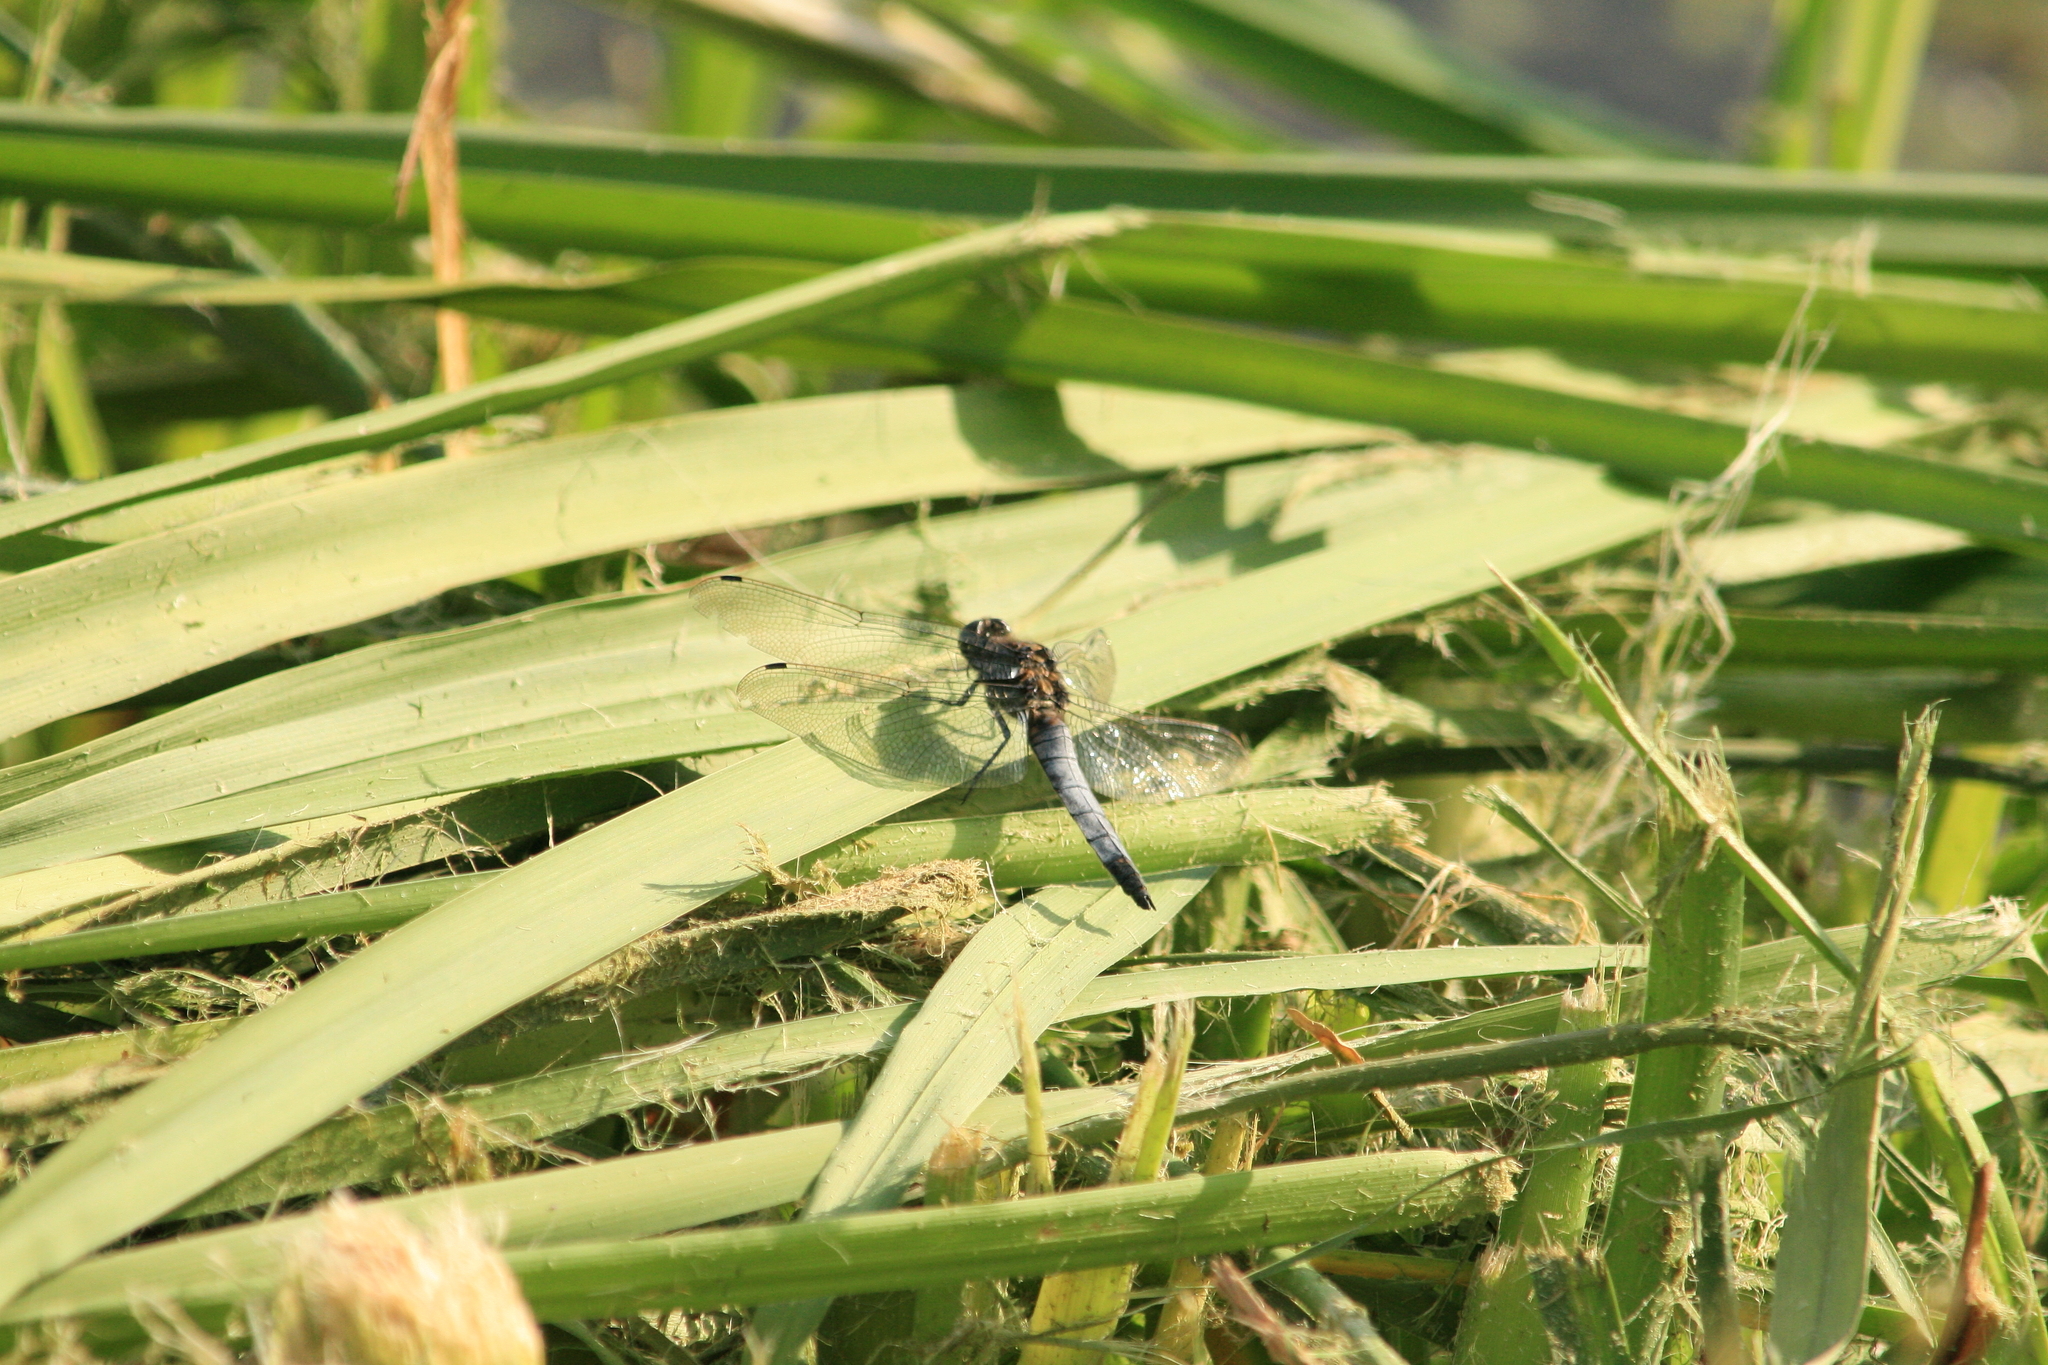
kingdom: Animalia
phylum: Arthropoda
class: Insecta
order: Odonata
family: Libellulidae
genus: Orthetrum
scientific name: Orthetrum cancellatum
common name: Black-tailed skimmer
